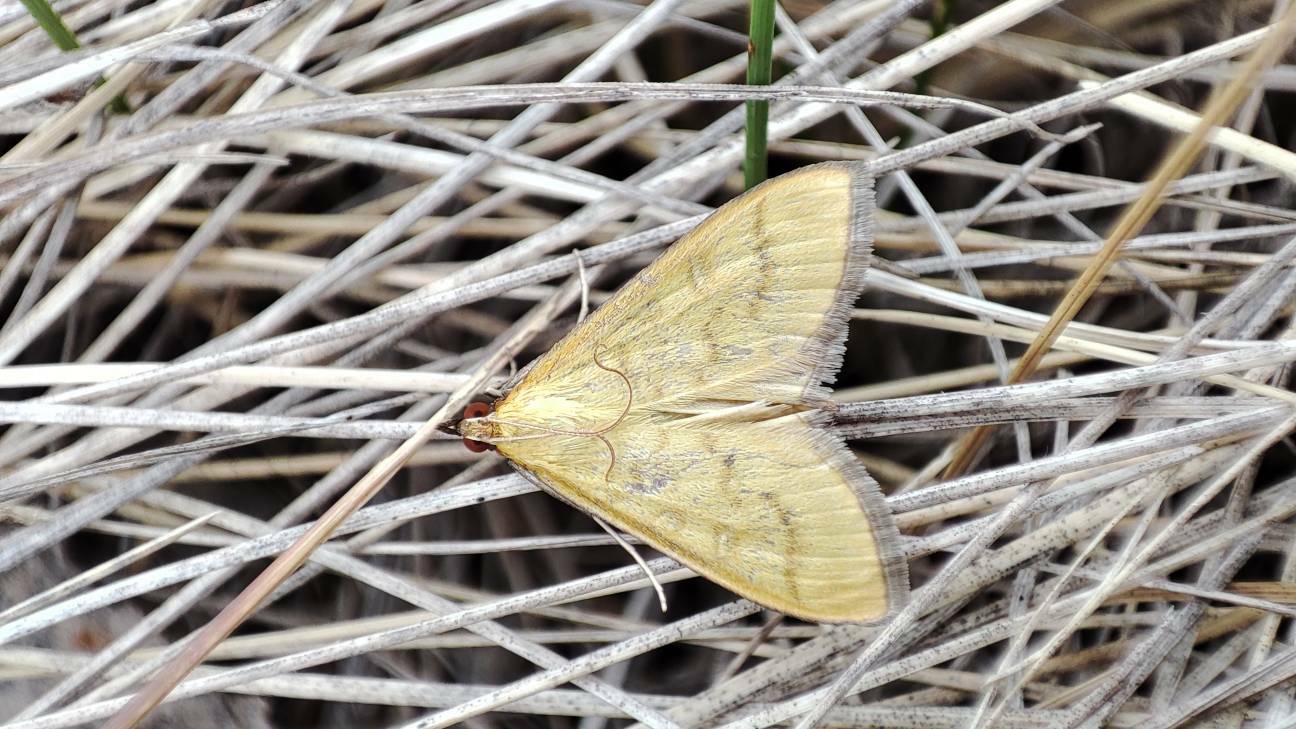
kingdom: Animalia
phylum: Arthropoda
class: Insecta
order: Lepidoptera
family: Crambidae
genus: Mecyna
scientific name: Mecyna flavalis
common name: Yellow pearl
